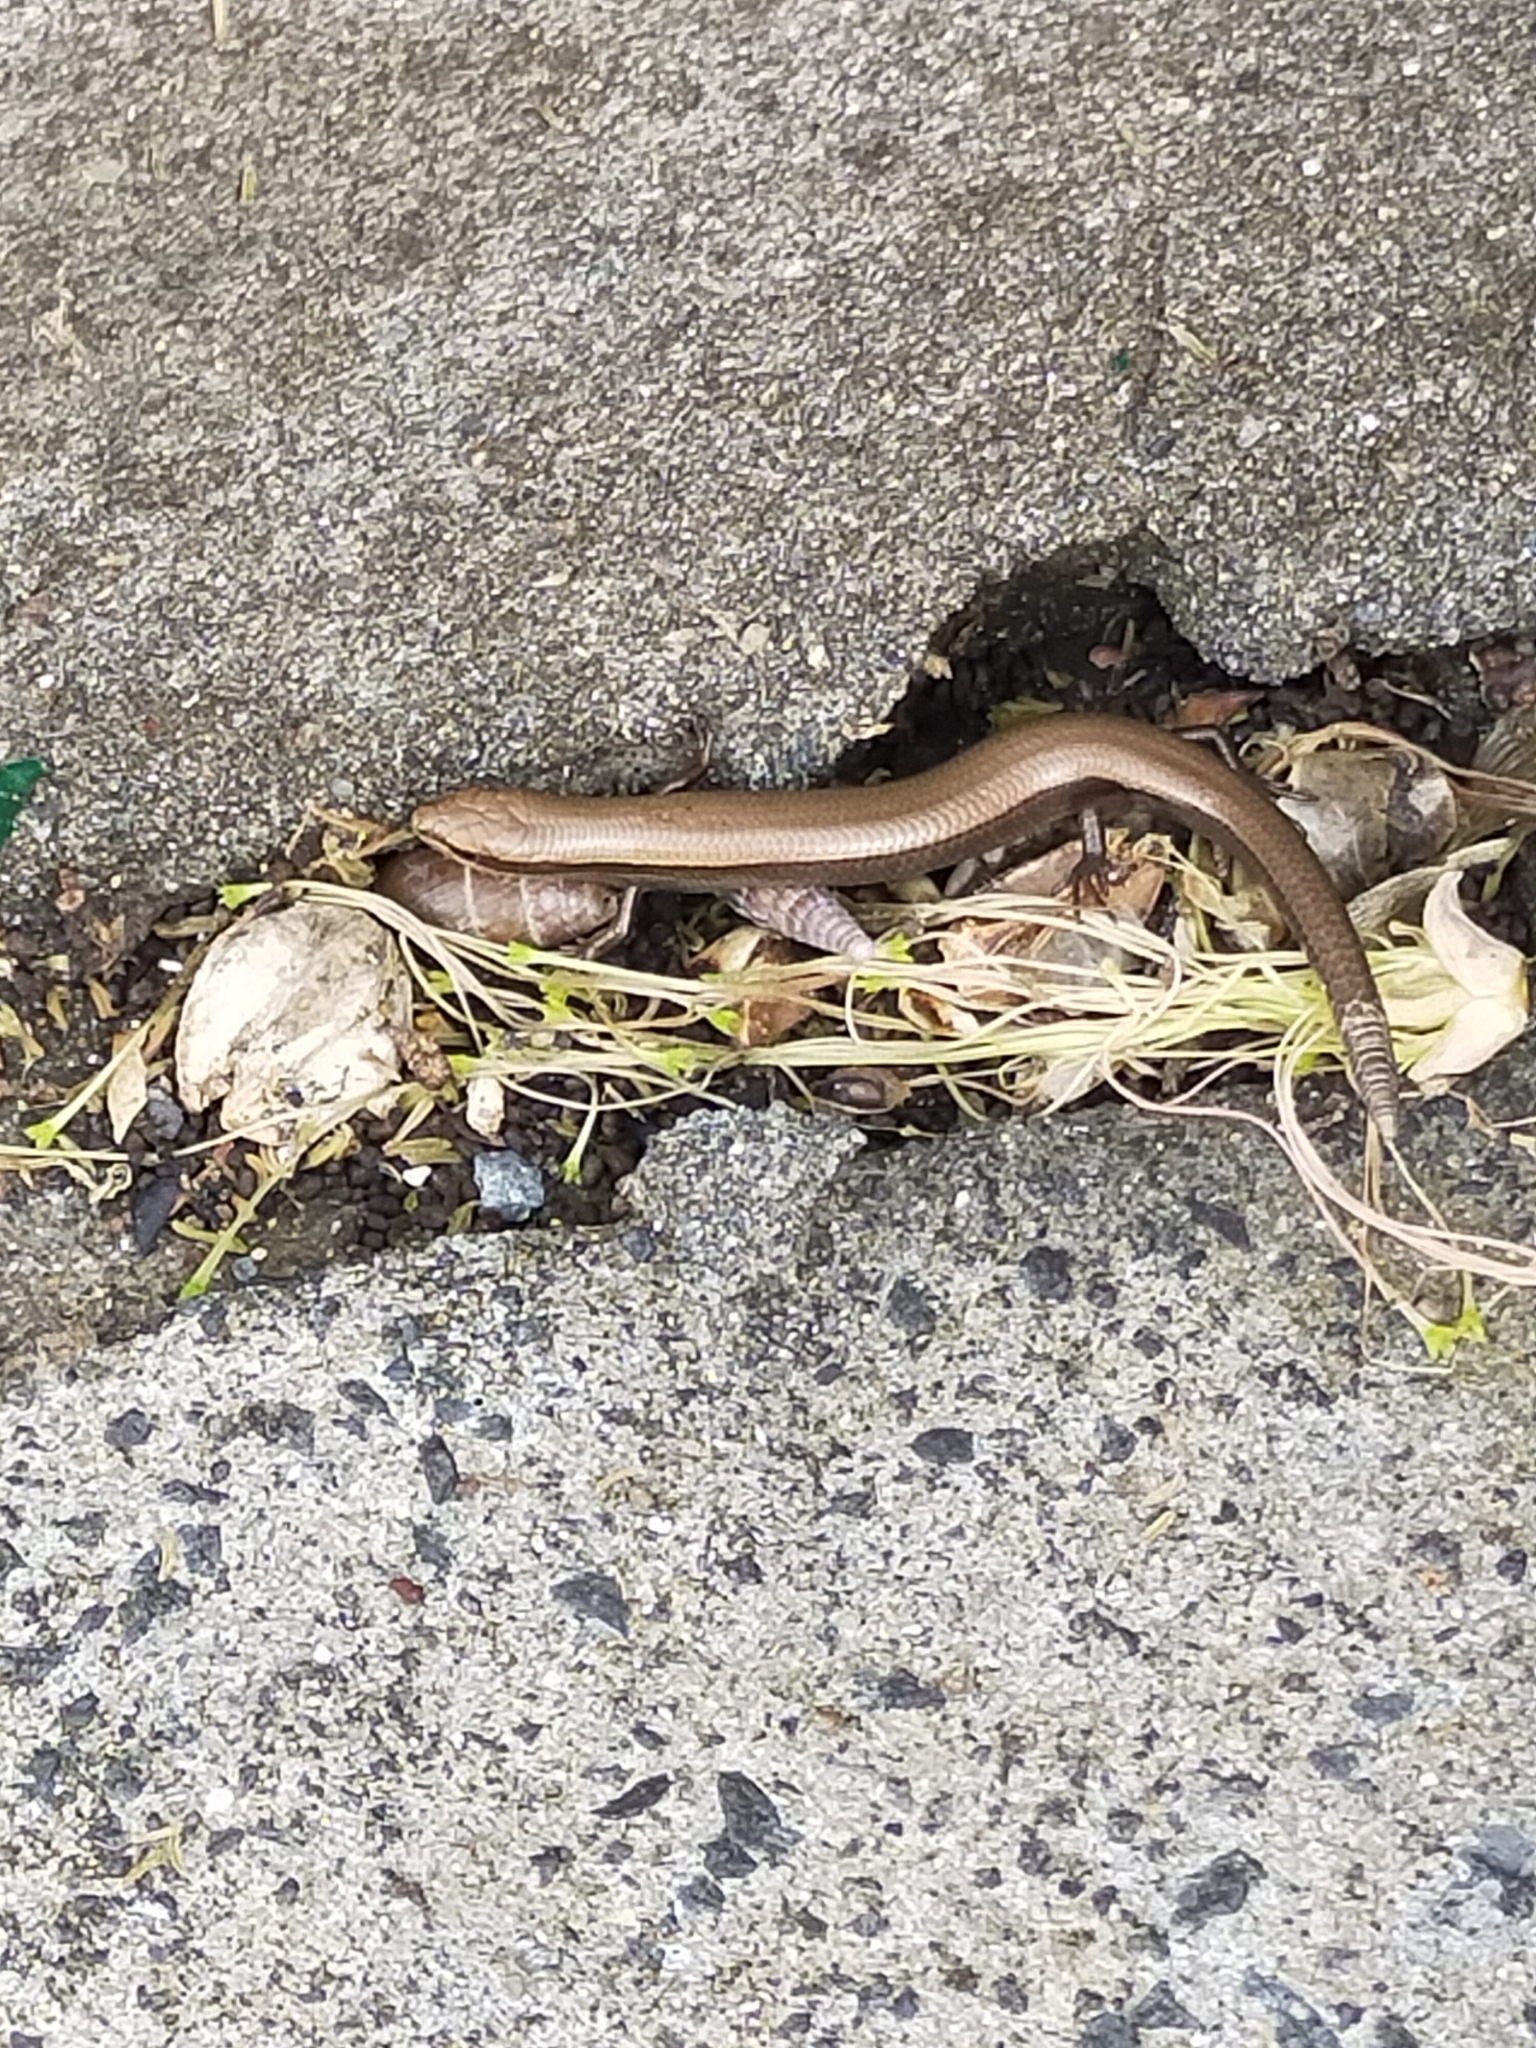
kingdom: Animalia
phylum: Chordata
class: Squamata
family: Scincidae
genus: Ablepharus
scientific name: Ablepharus kitaibelii
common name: Juniper skink
